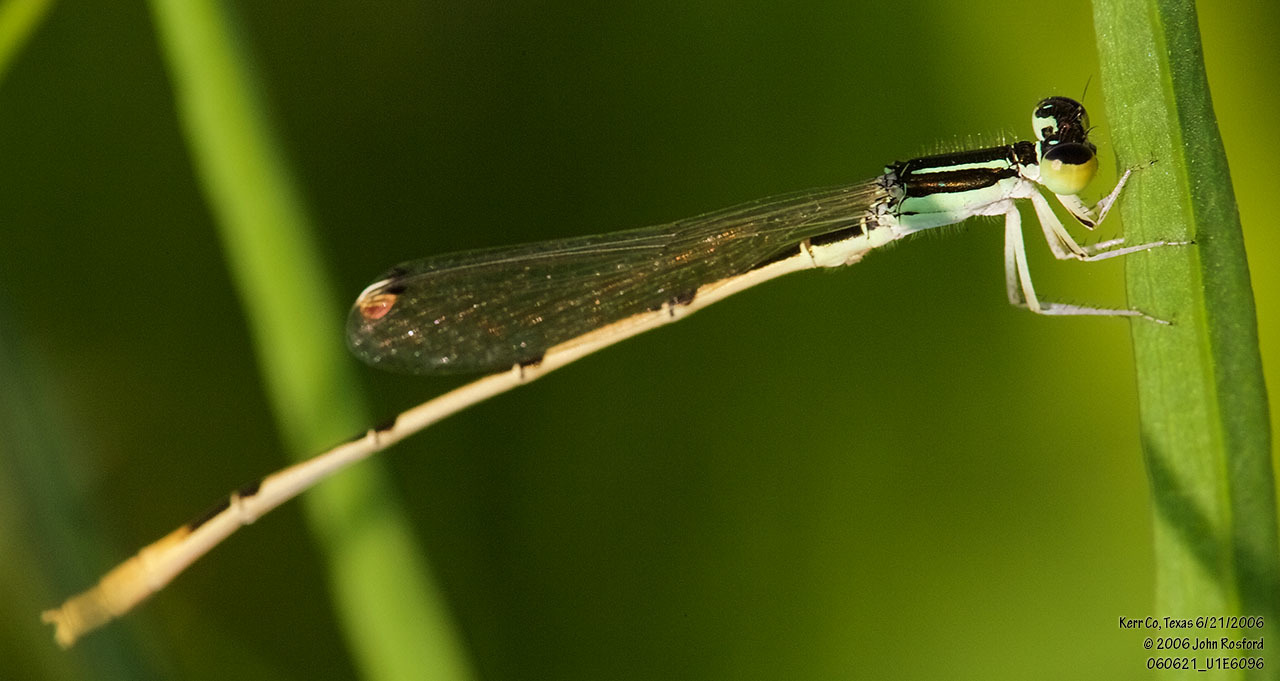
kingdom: Animalia
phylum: Arthropoda
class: Insecta
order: Odonata
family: Coenagrionidae
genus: Ischnura
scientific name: Ischnura hastata
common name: Citrine forktail
